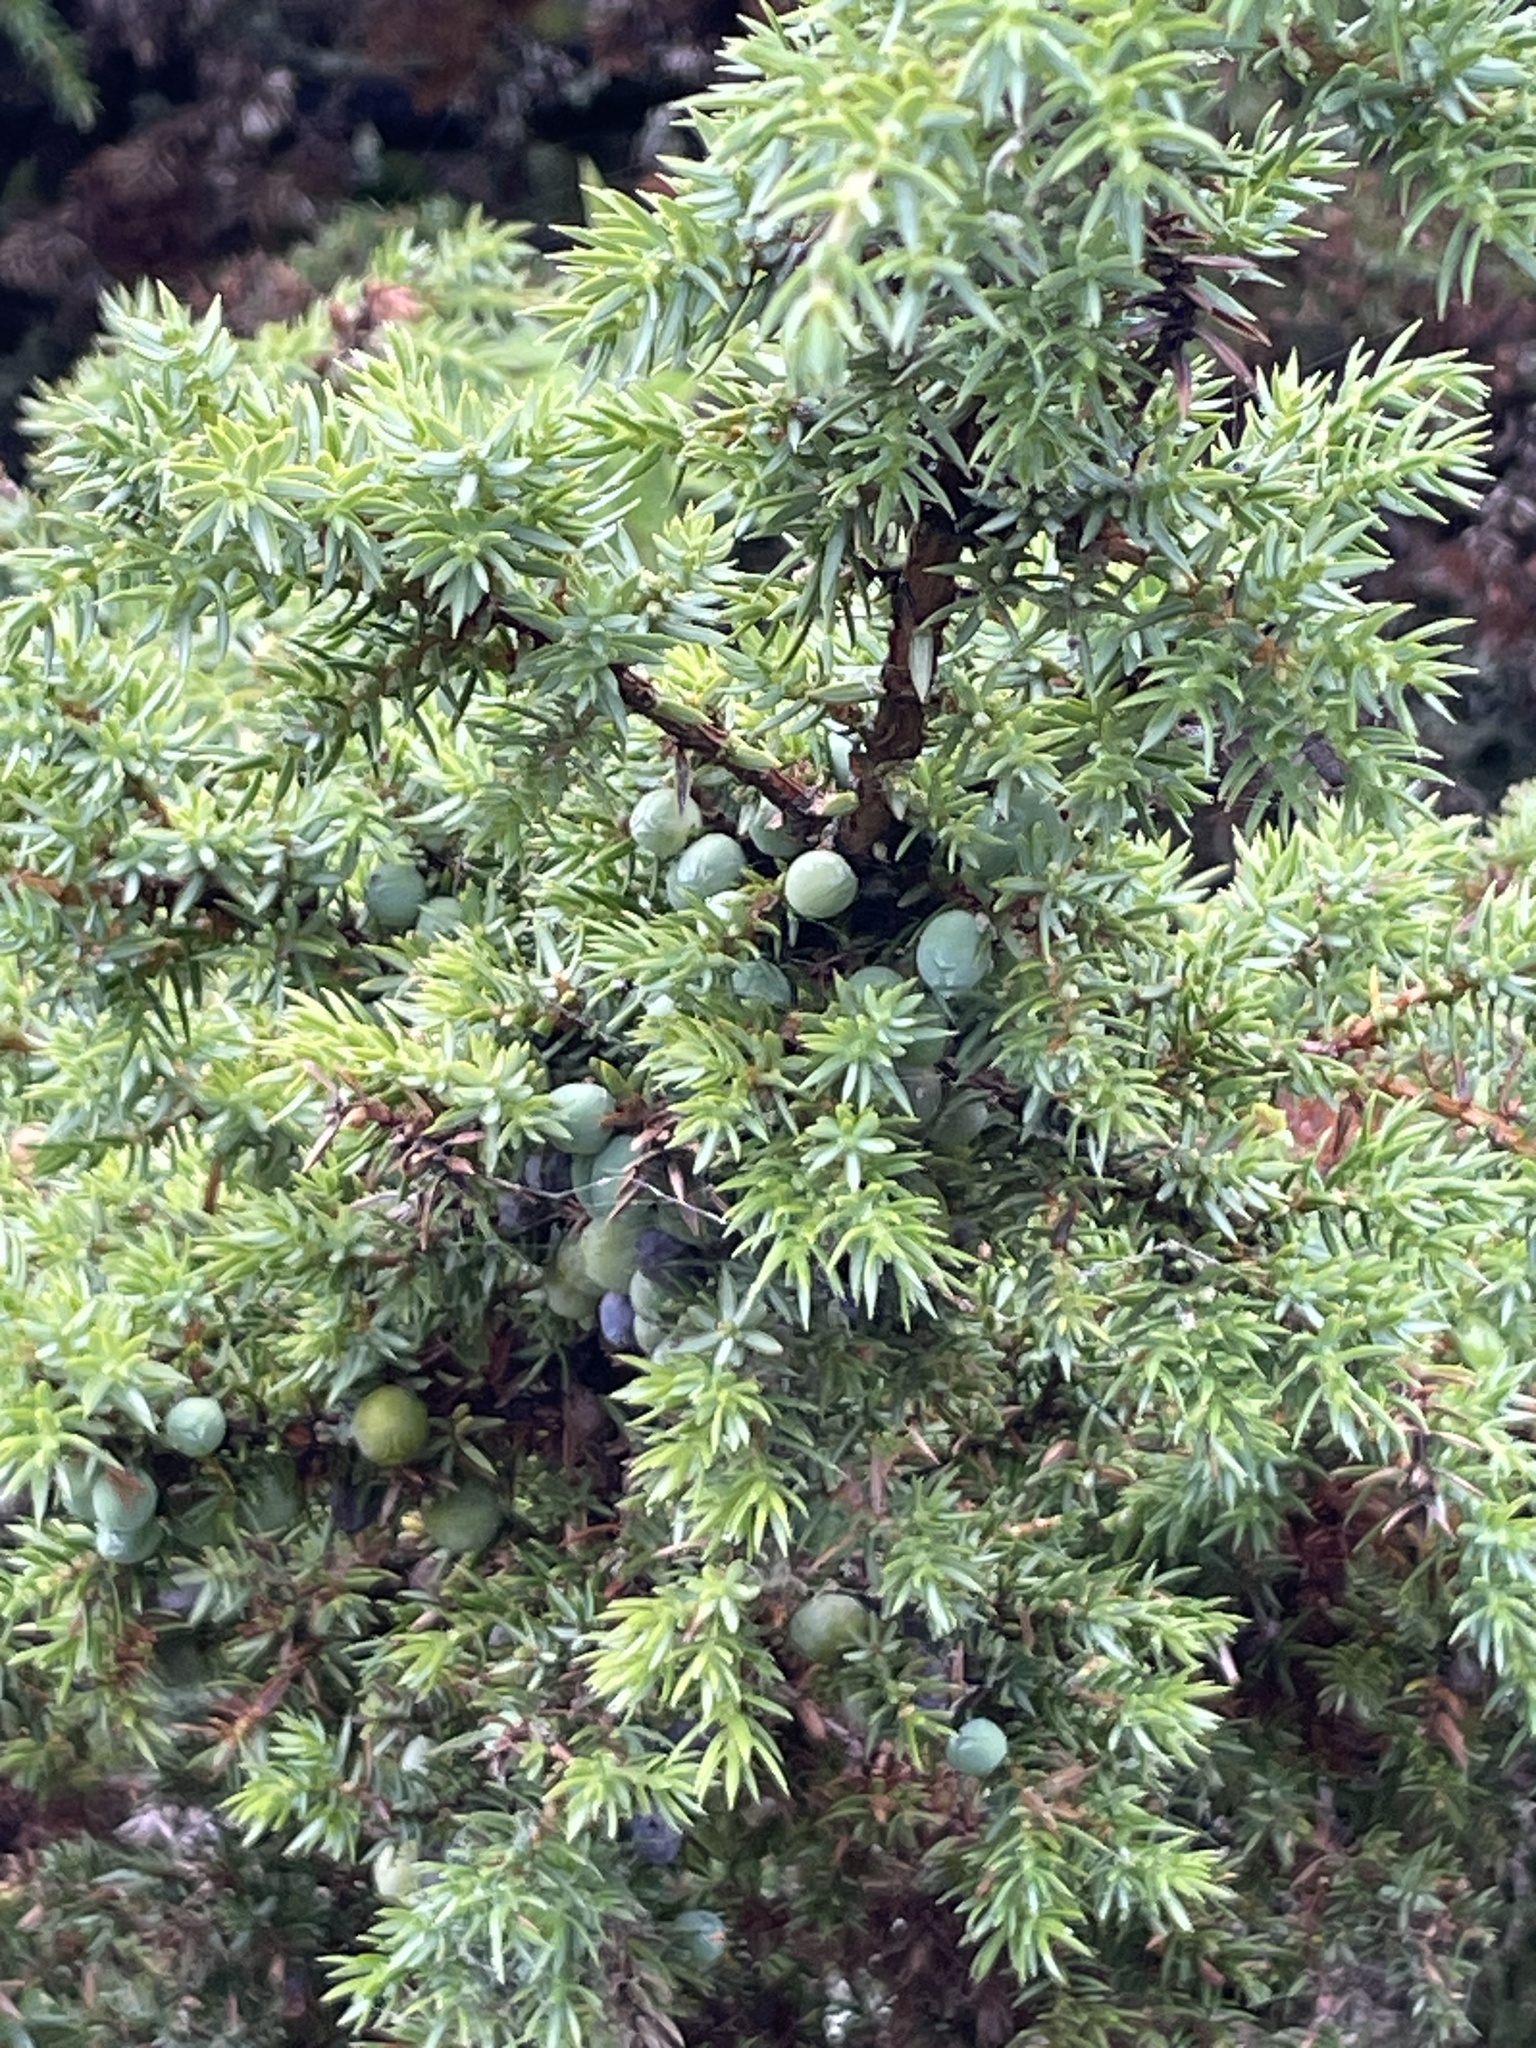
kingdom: Plantae
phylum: Tracheophyta
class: Pinopsida
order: Pinales
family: Cupressaceae
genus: Juniperus
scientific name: Juniperus communis
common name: Common juniper
